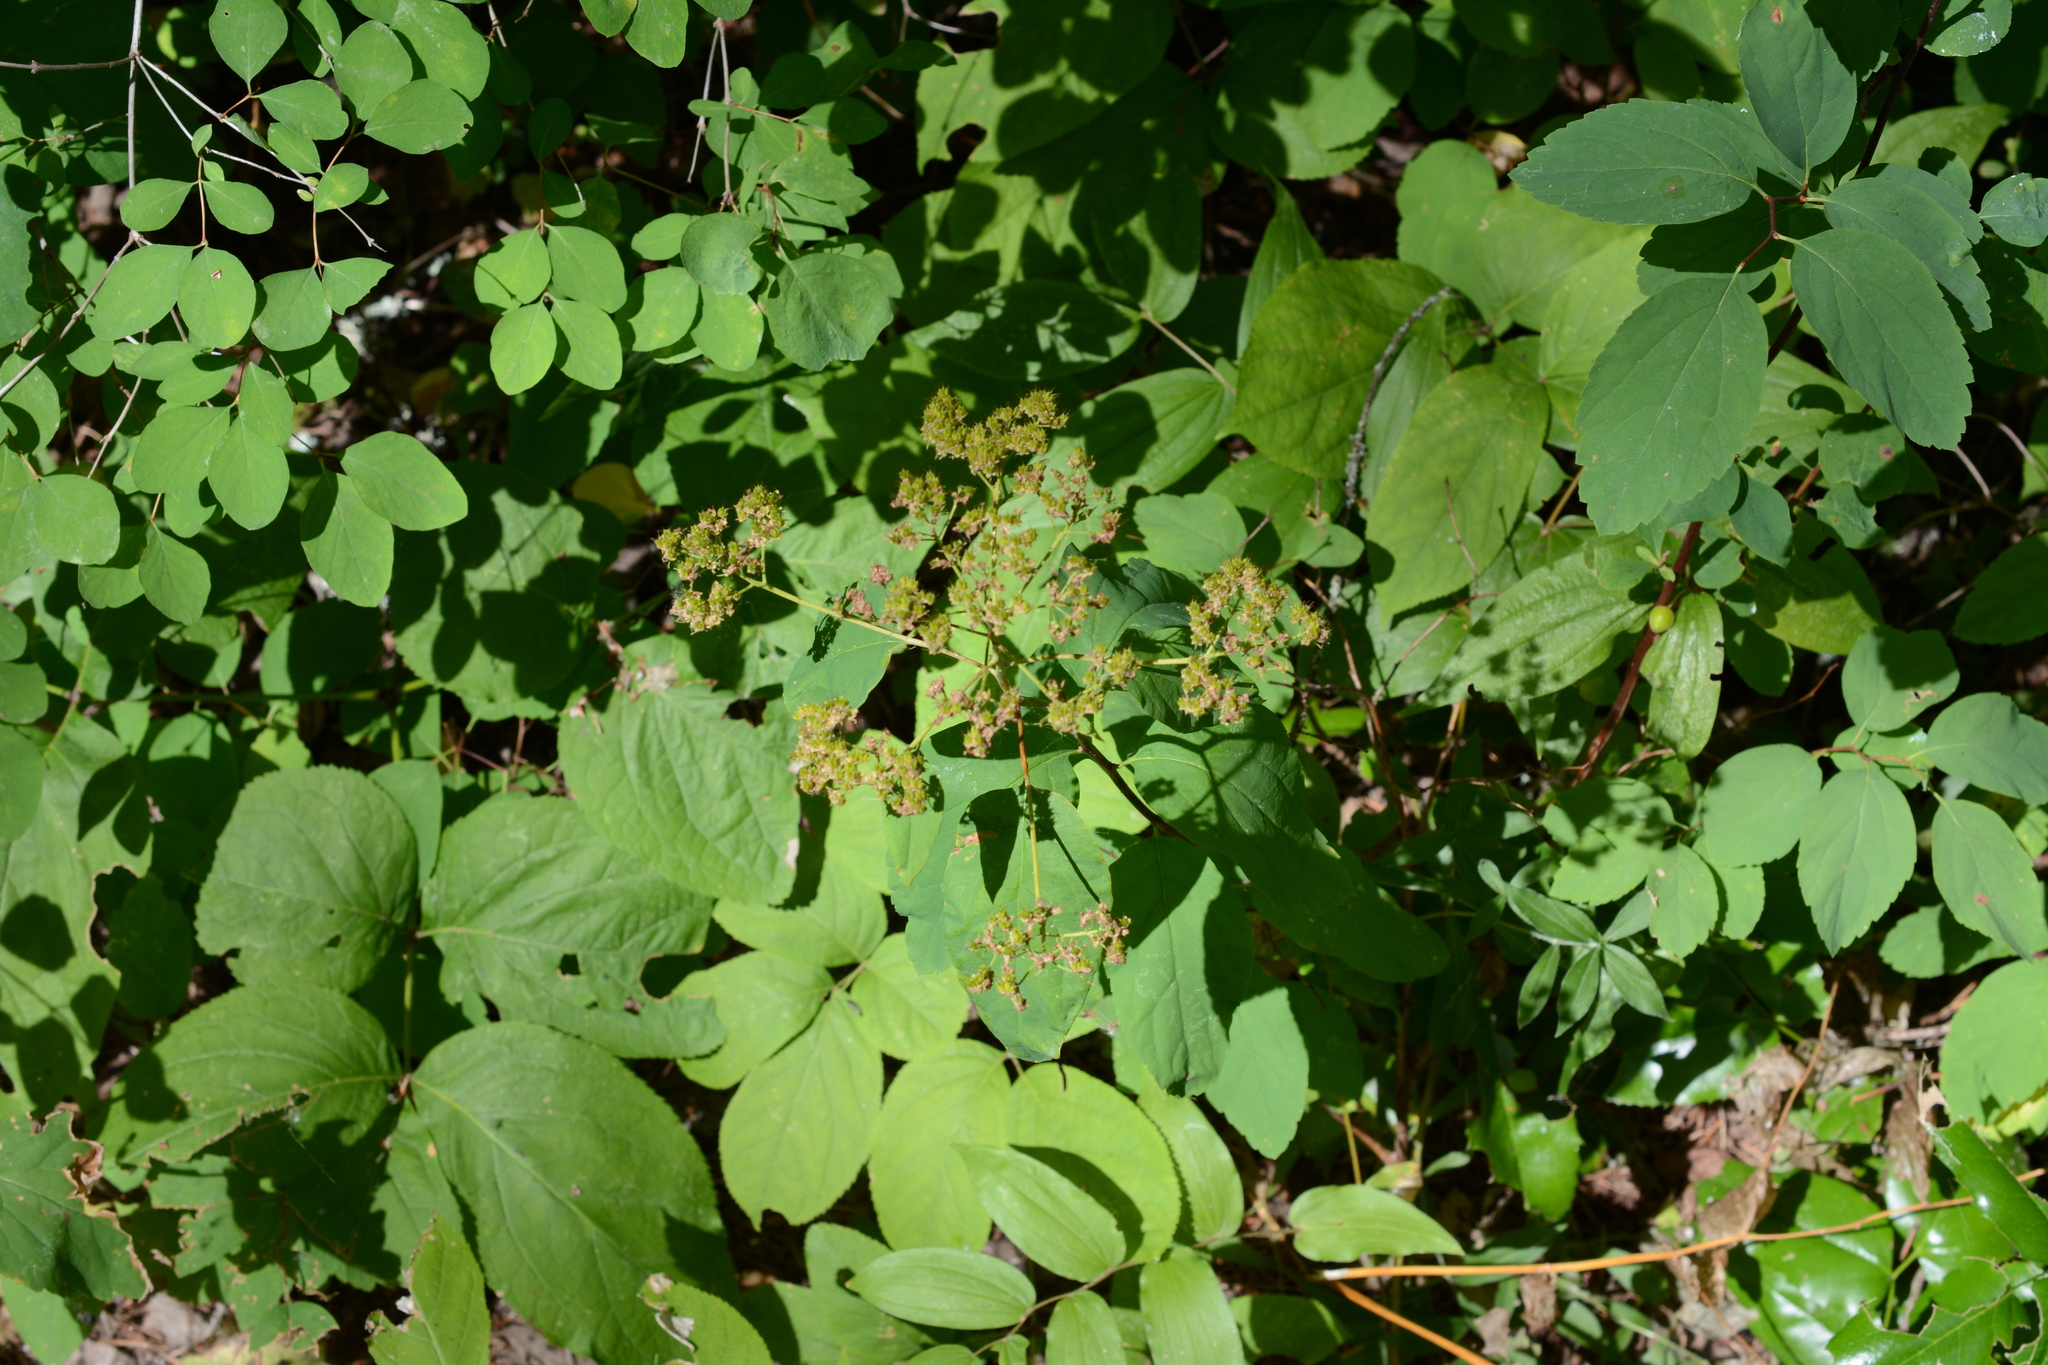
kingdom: Plantae
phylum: Tracheophyta
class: Magnoliopsida
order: Rosales
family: Rosaceae
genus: Spiraea
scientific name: Spiraea lucida
